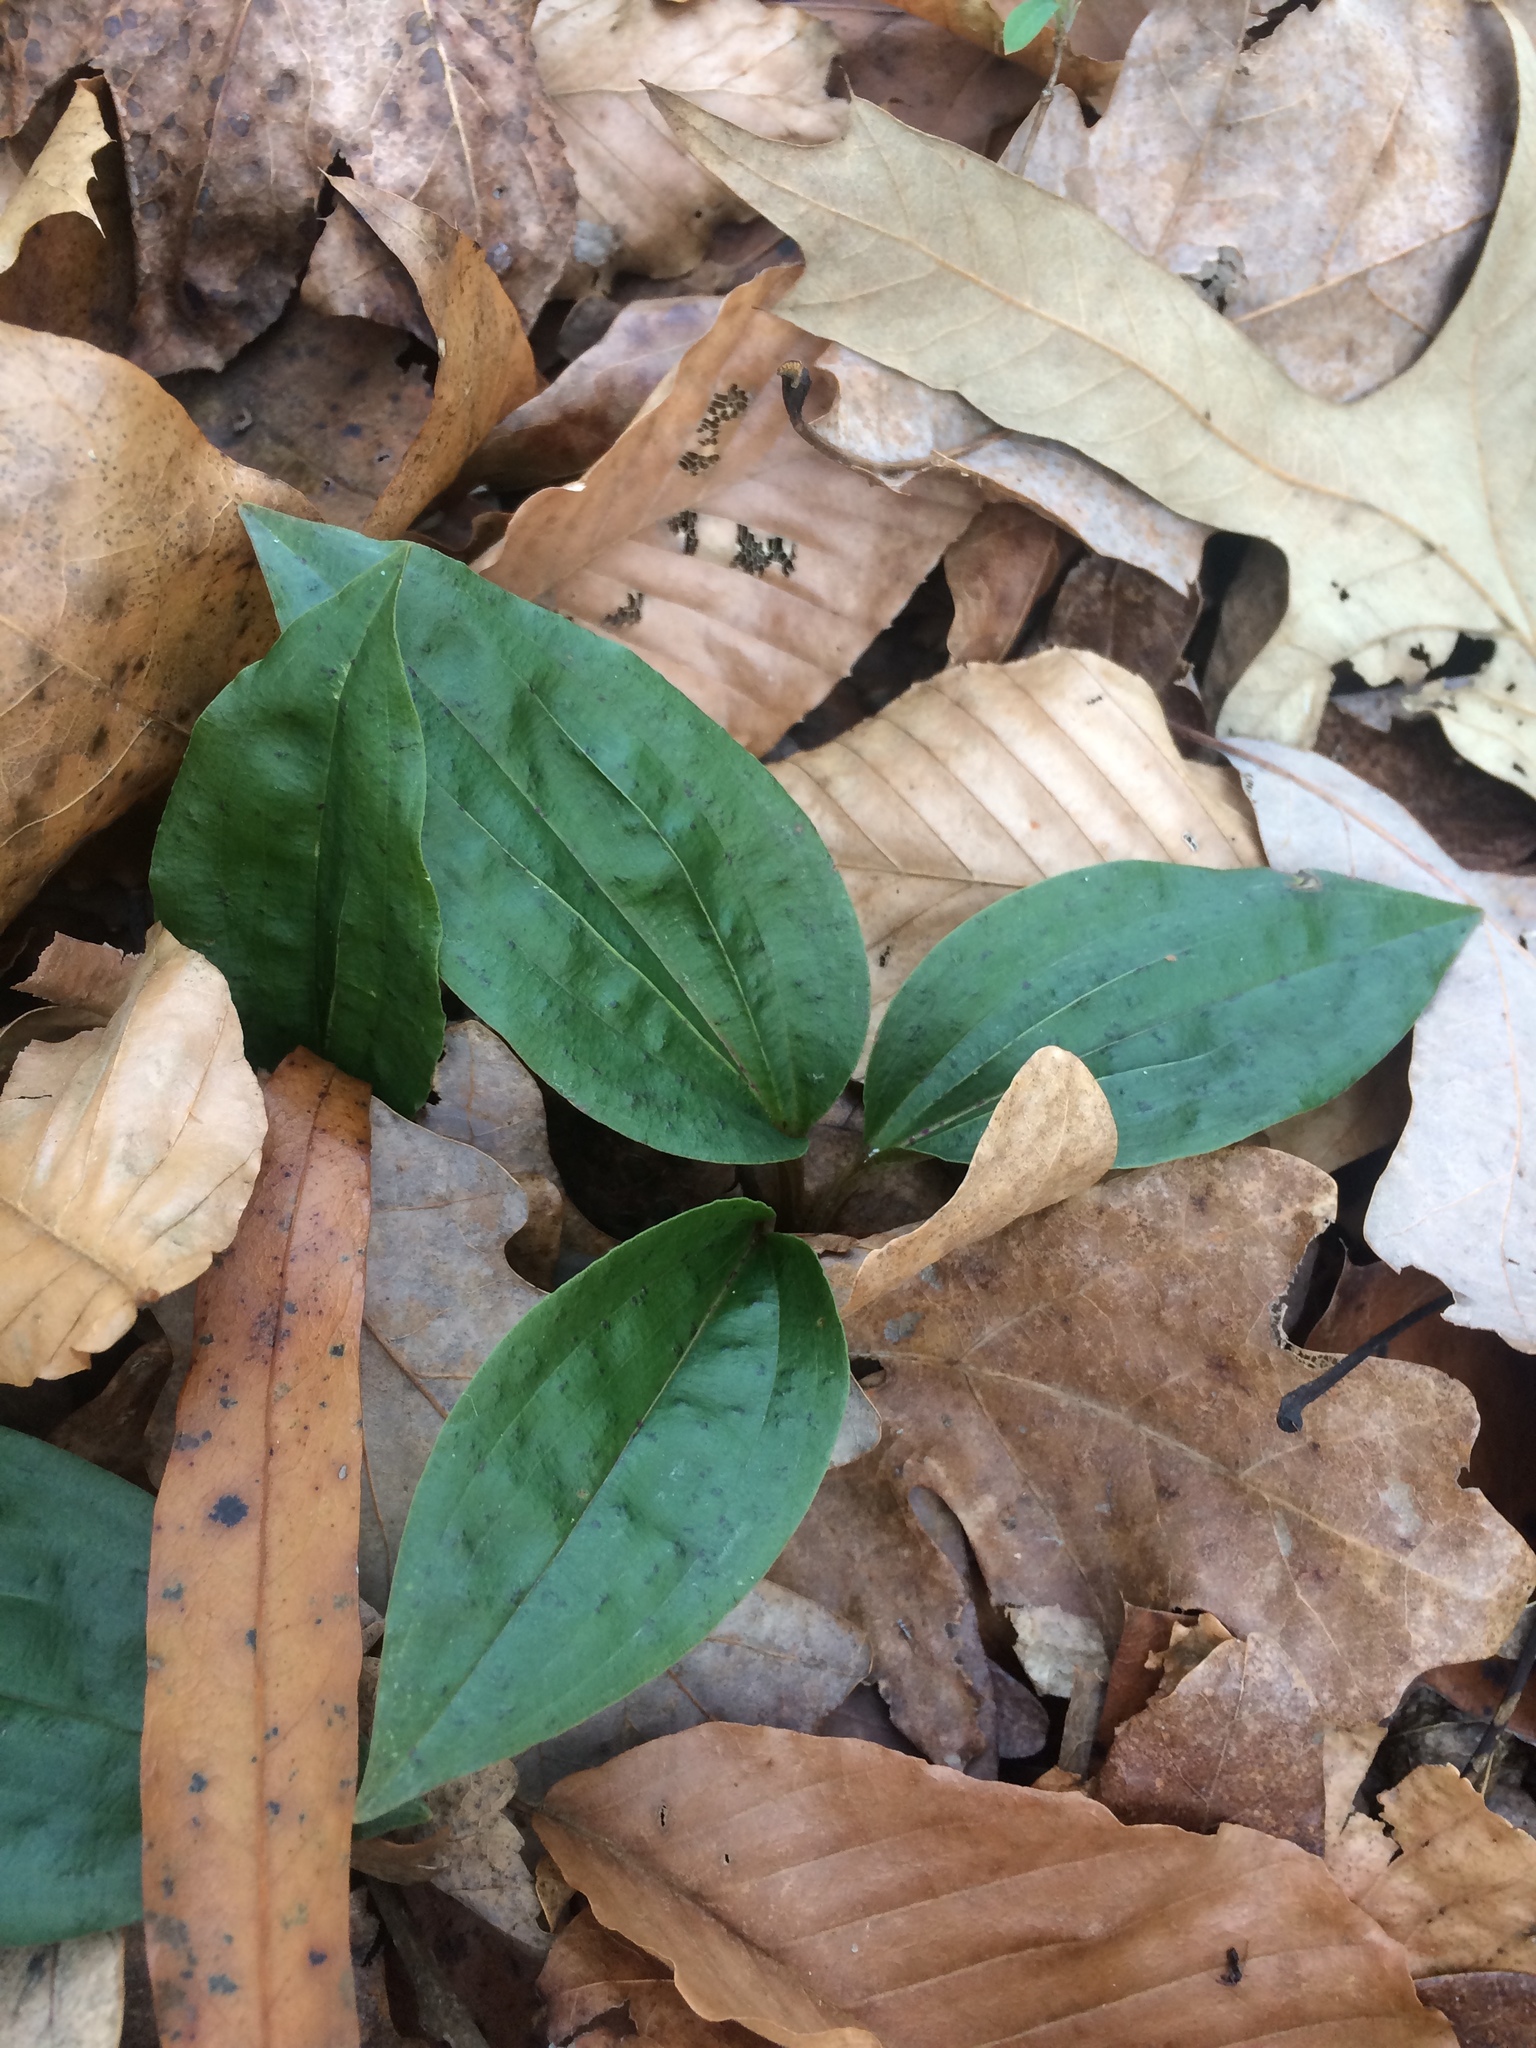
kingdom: Plantae
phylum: Tracheophyta
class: Liliopsida
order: Asparagales
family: Orchidaceae
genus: Tipularia
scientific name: Tipularia discolor
